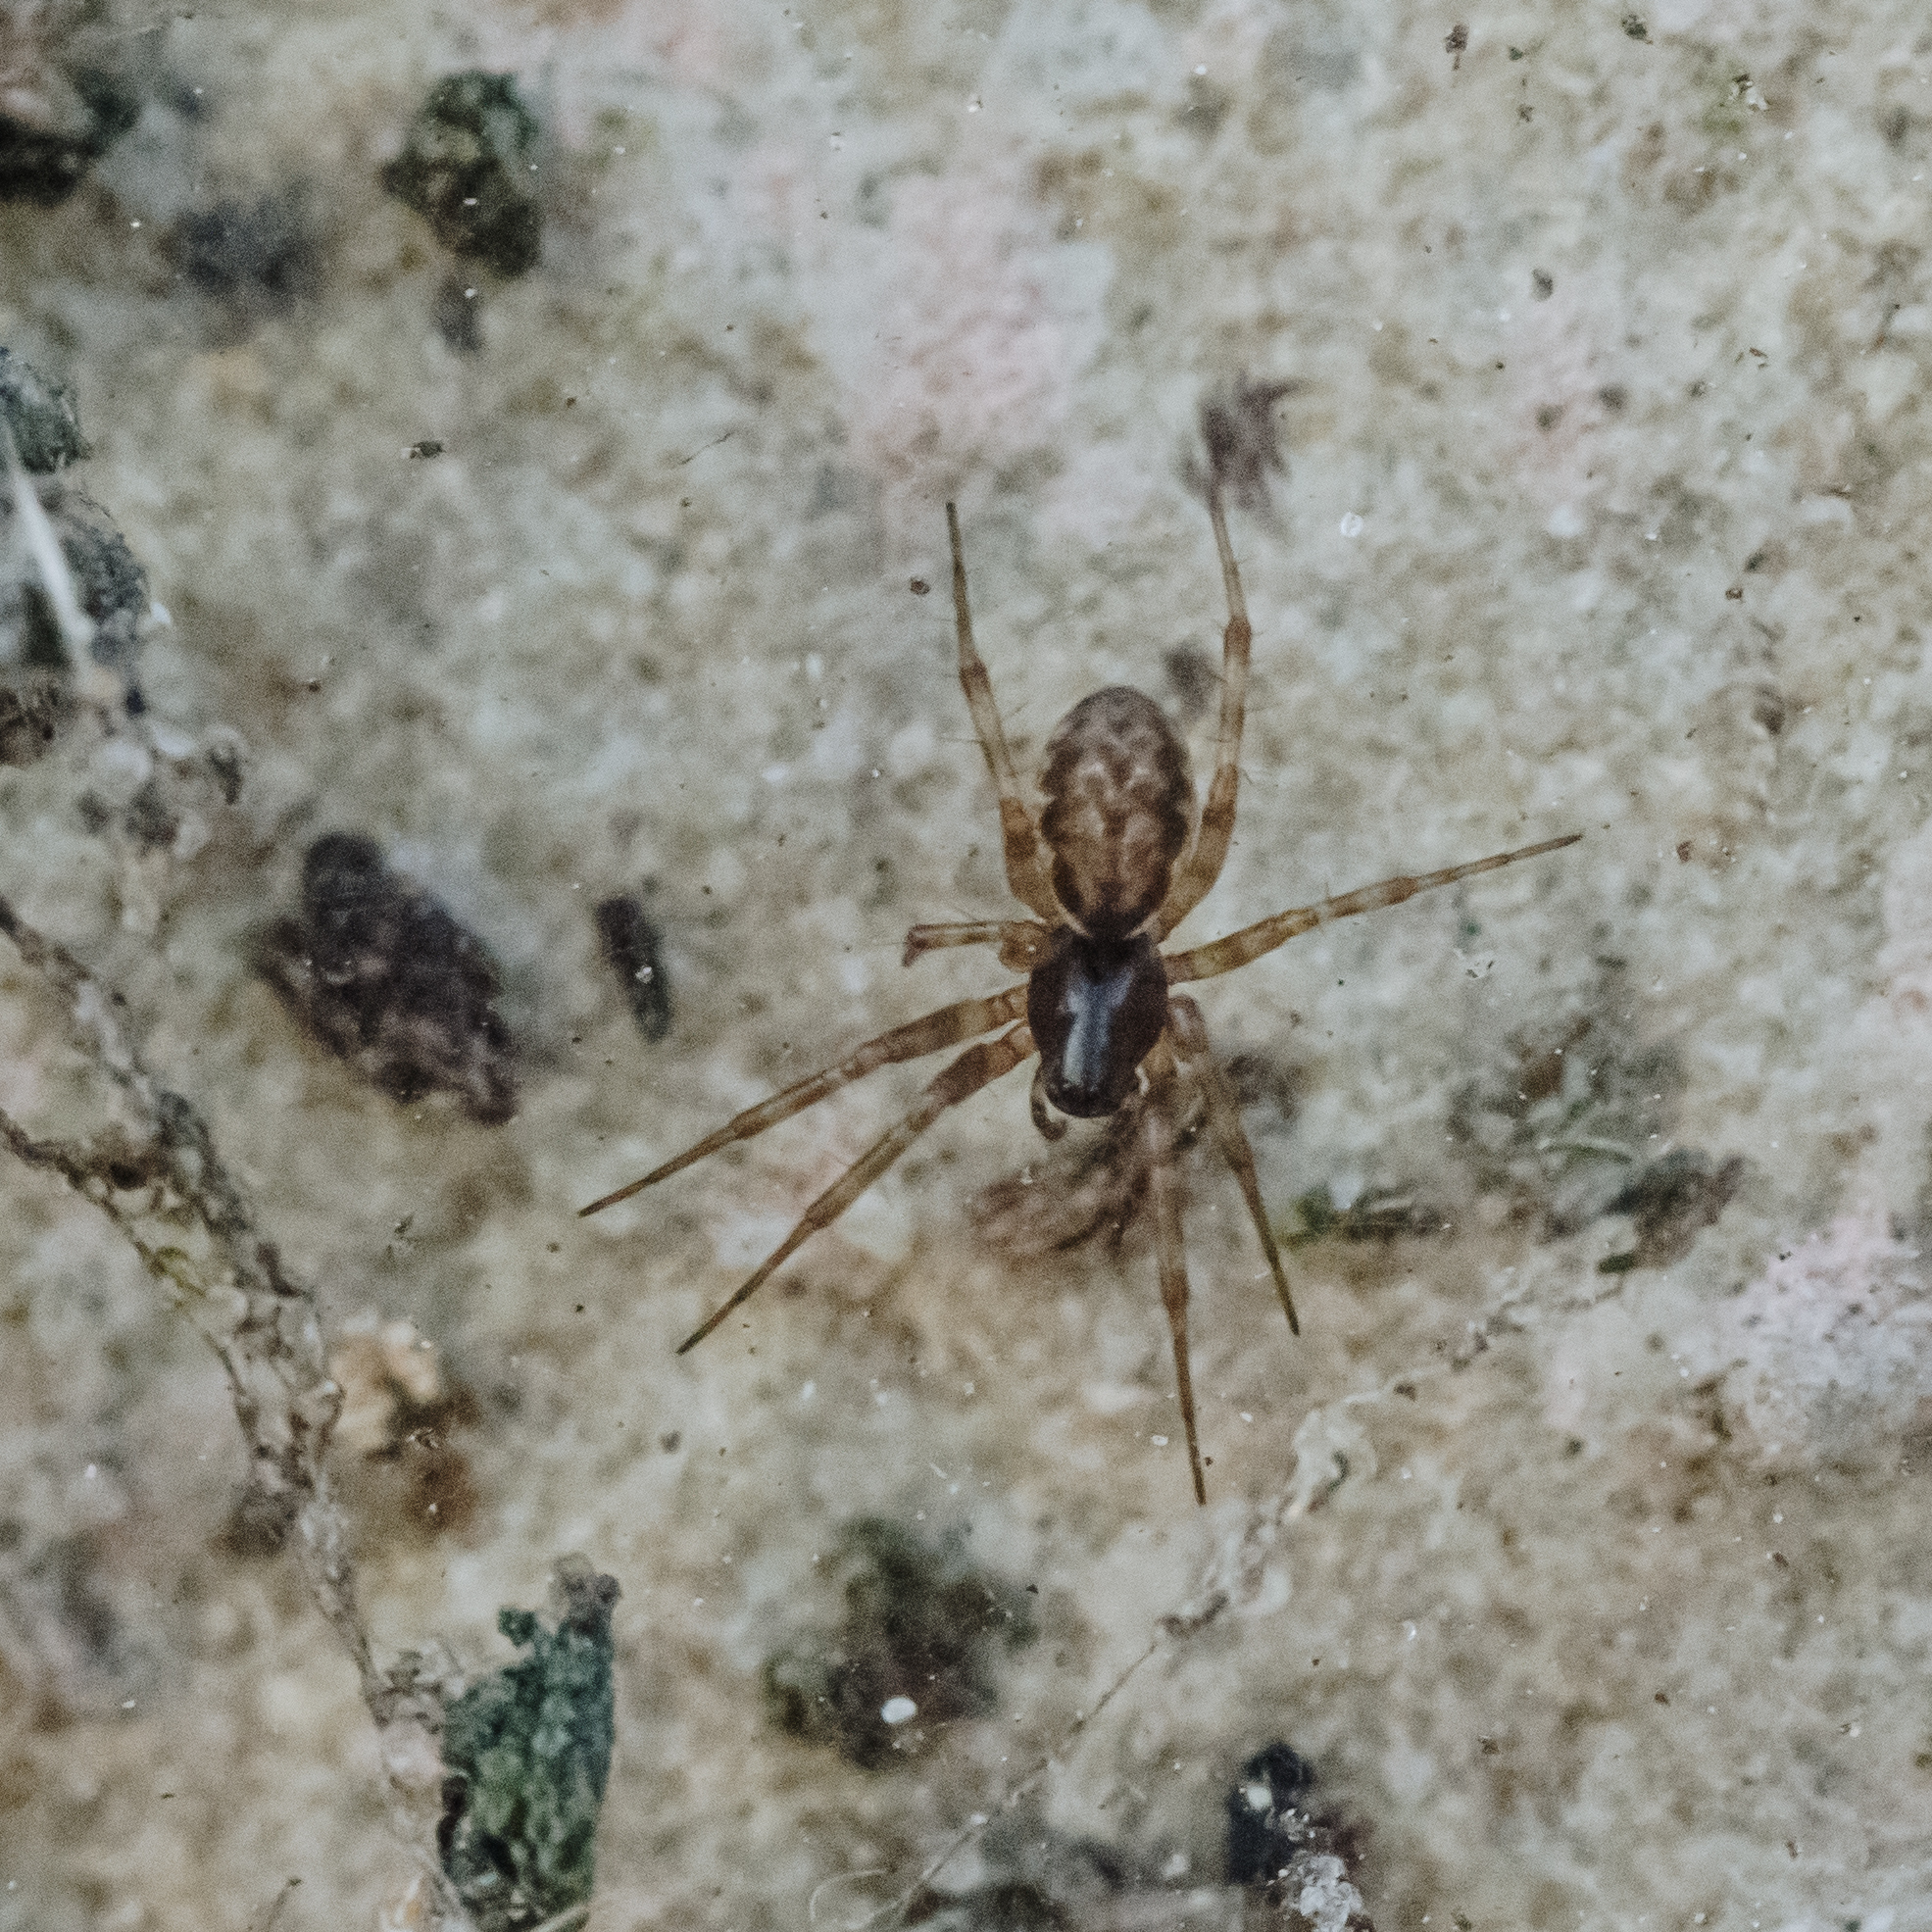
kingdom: Animalia
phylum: Arthropoda
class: Arachnida
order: Araneae
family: Linyphiidae
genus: Neriene
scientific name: Neriene montana
